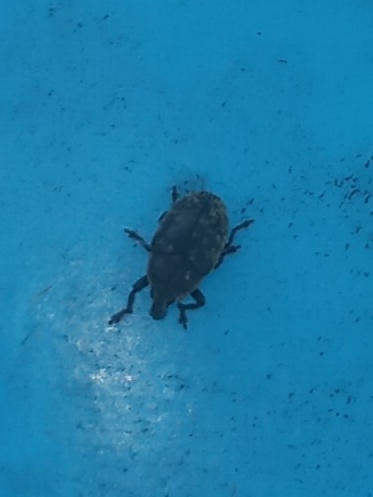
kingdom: Animalia
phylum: Arthropoda
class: Insecta
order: Coleoptera
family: Curculionidae
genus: Larinus
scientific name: Larinus obtusus
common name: Weevil
